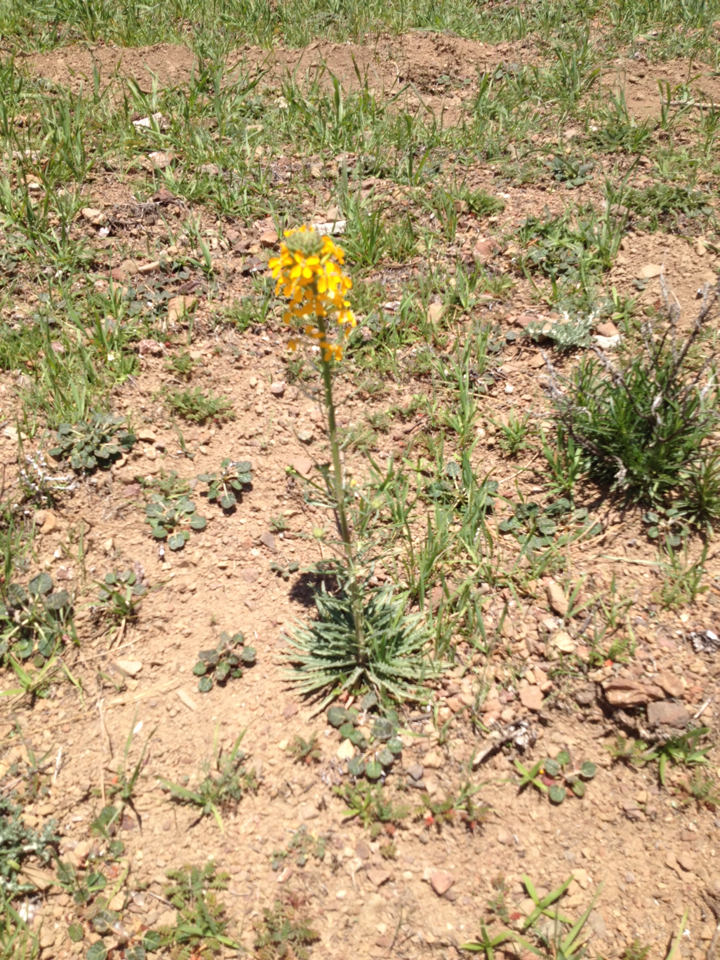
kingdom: Plantae
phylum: Tracheophyta
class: Magnoliopsida
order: Brassicales
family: Brassicaceae
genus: Erysimum
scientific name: Erysimum capitatum
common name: Western wallflower
